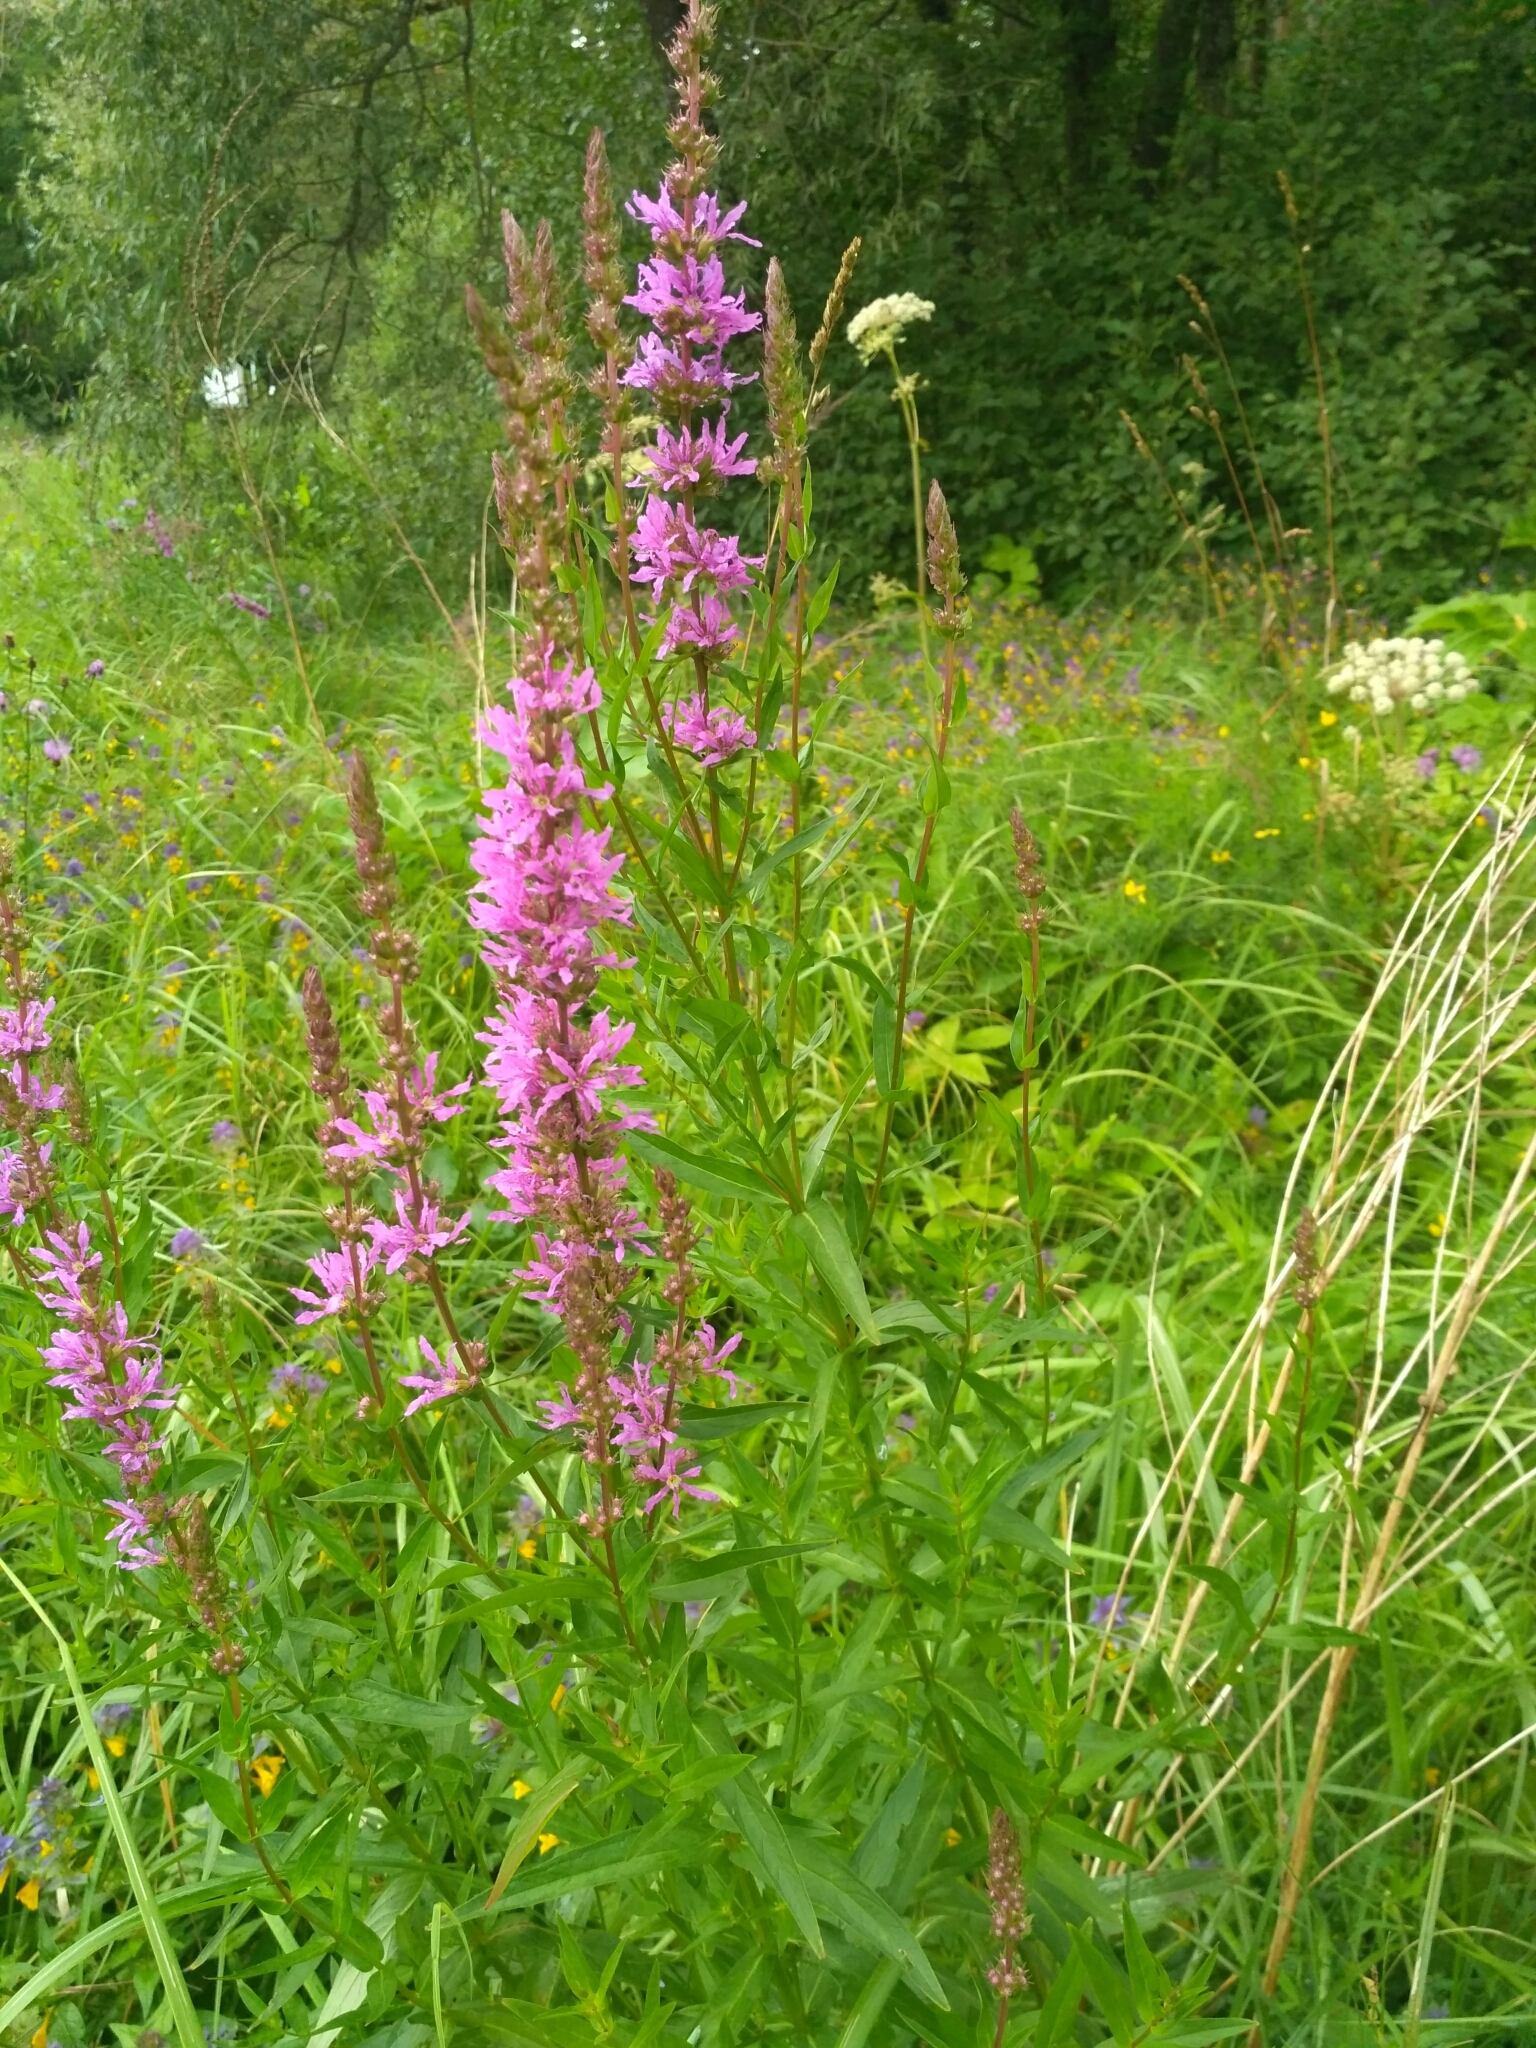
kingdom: Plantae
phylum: Tracheophyta
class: Magnoliopsida
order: Myrtales
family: Lythraceae
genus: Lythrum
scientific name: Lythrum salicaria
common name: Purple loosestrife
